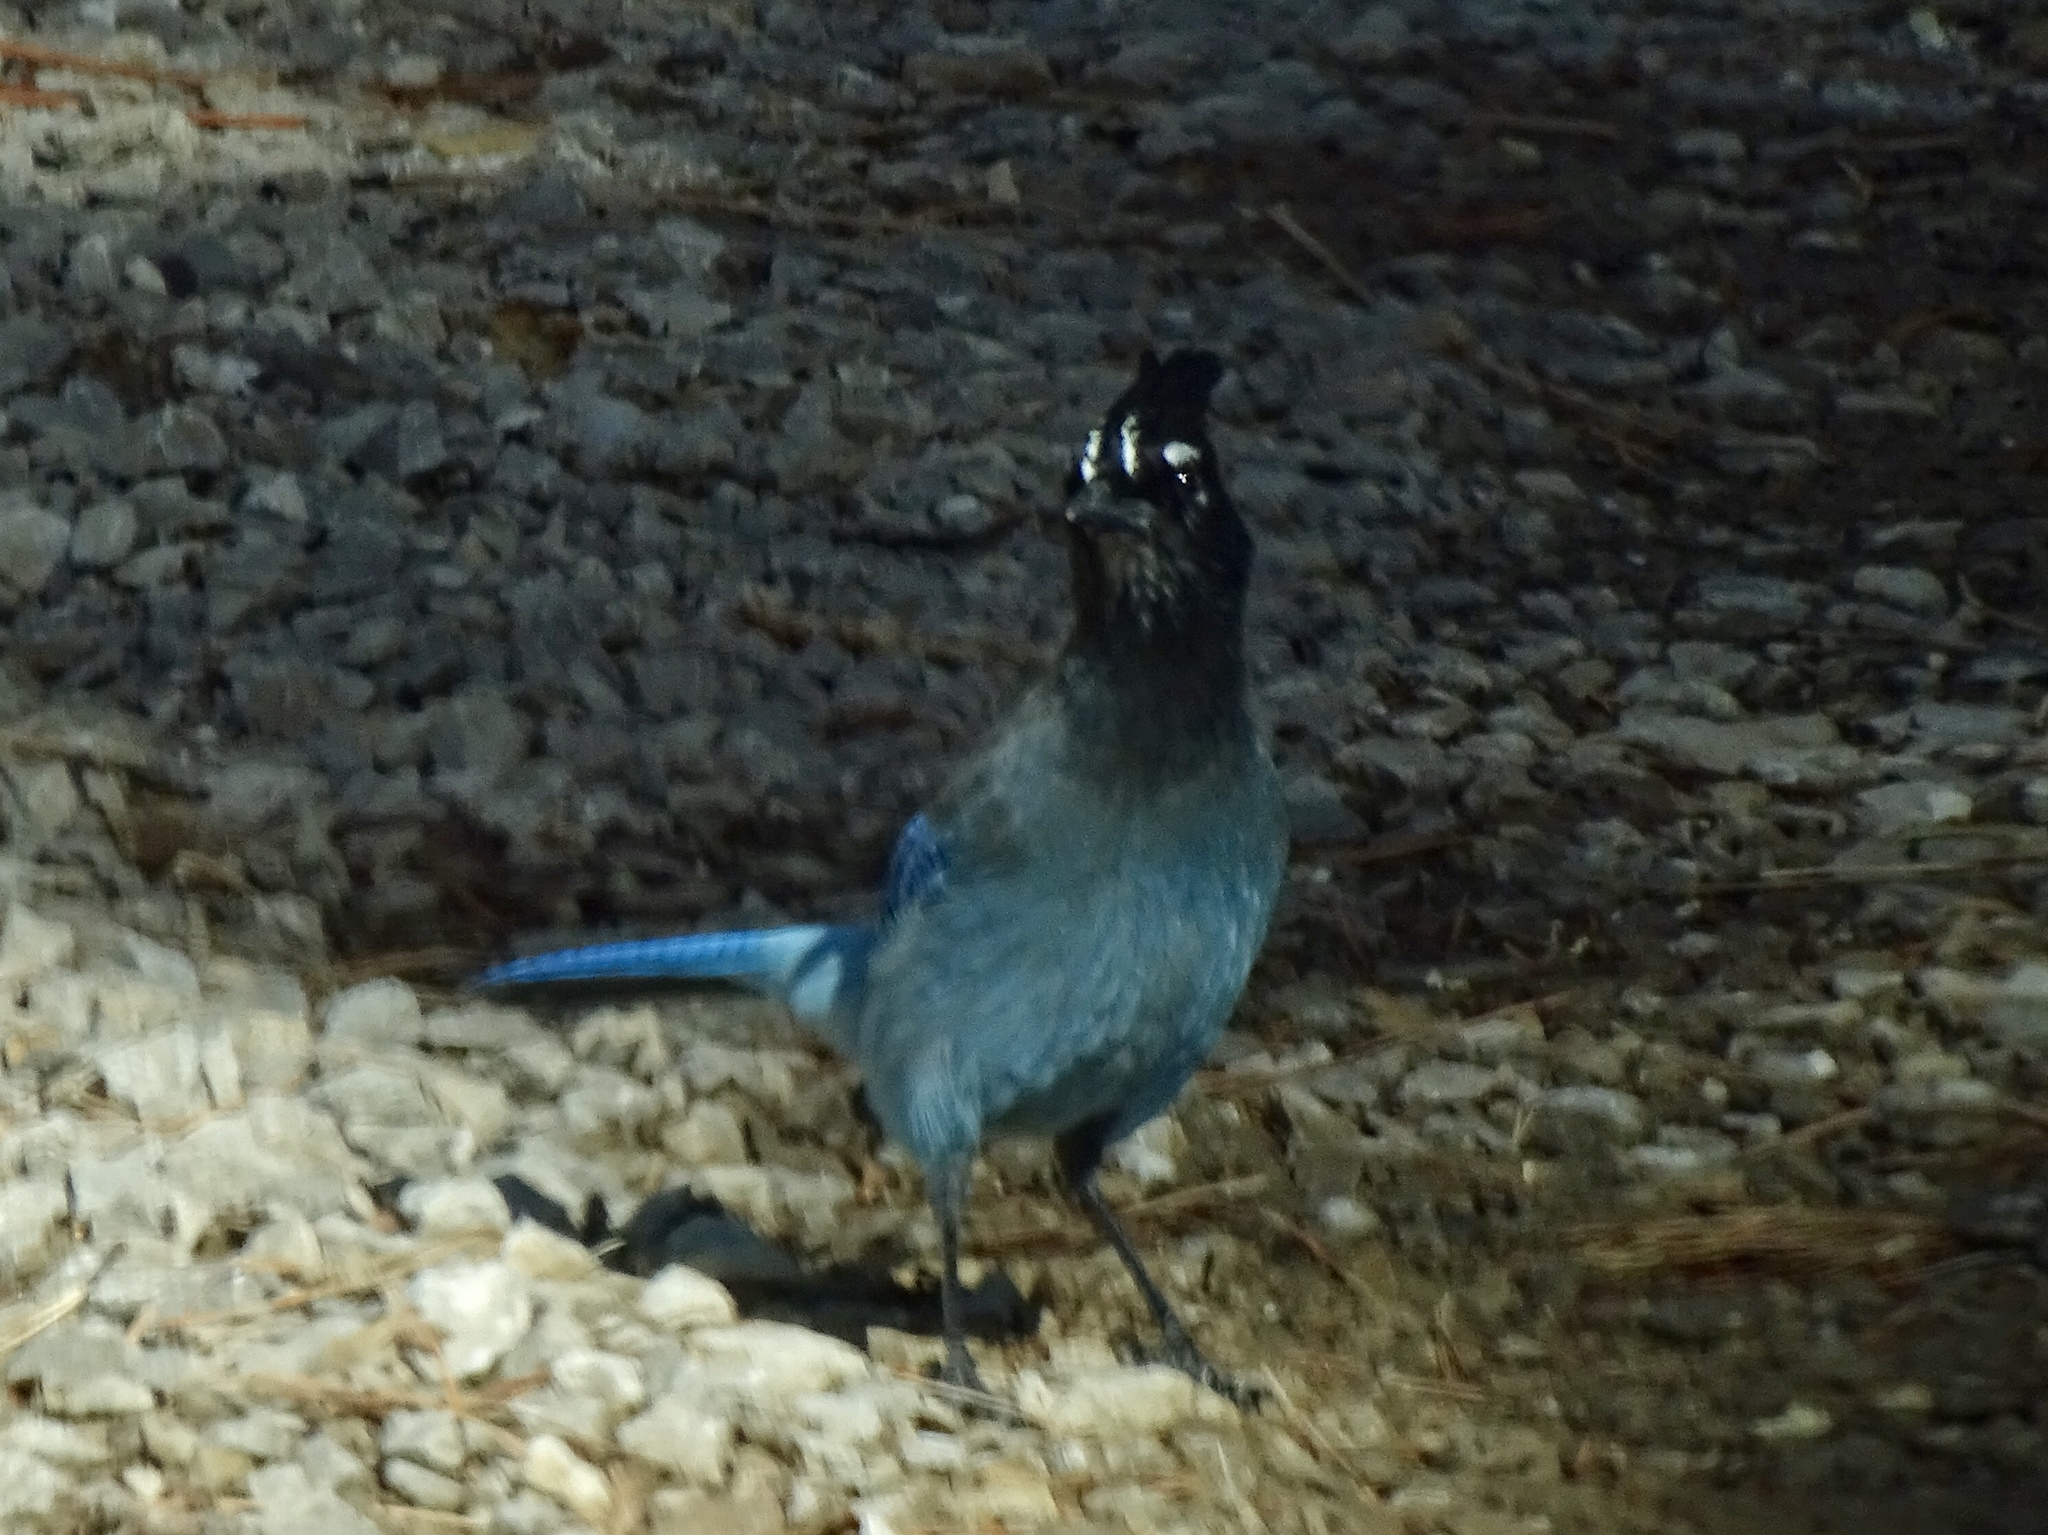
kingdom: Animalia
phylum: Chordata
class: Aves
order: Passeriformes
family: Corvidae
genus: Cyanocitta
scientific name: Cyanocitta stelleri
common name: Steller's jay
